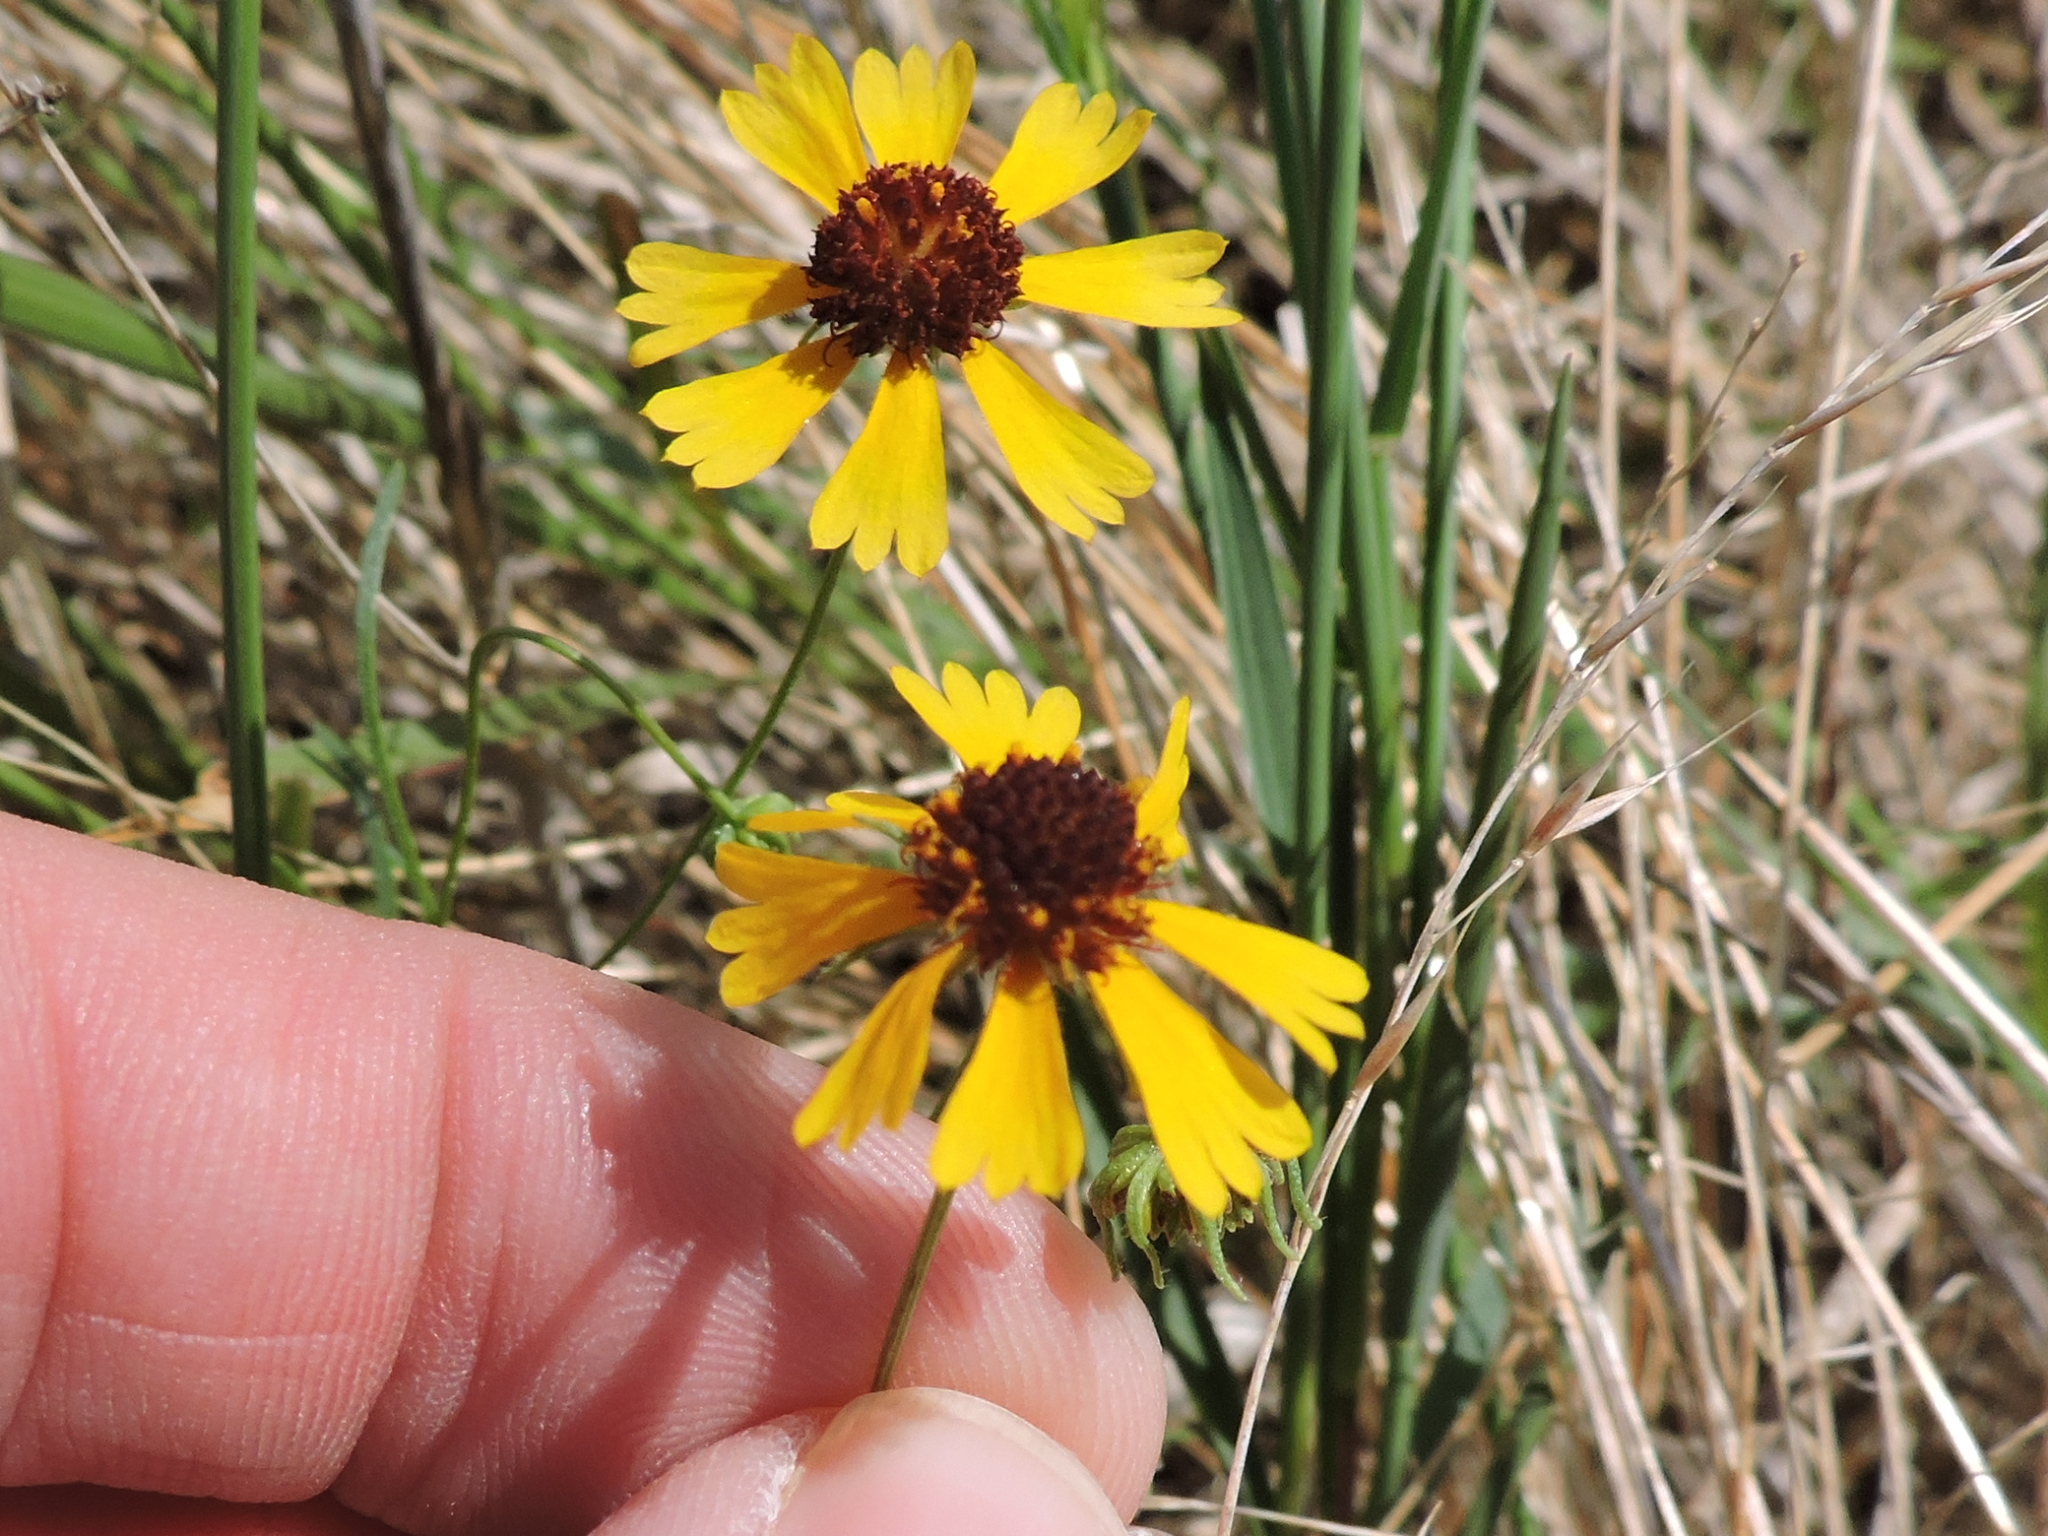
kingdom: Plantae
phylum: Tracheophyta
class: Magnoliopsida
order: Asterales
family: Asteraceae
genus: Helenium
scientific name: Helenium amarum
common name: Bitter sneezeweed
